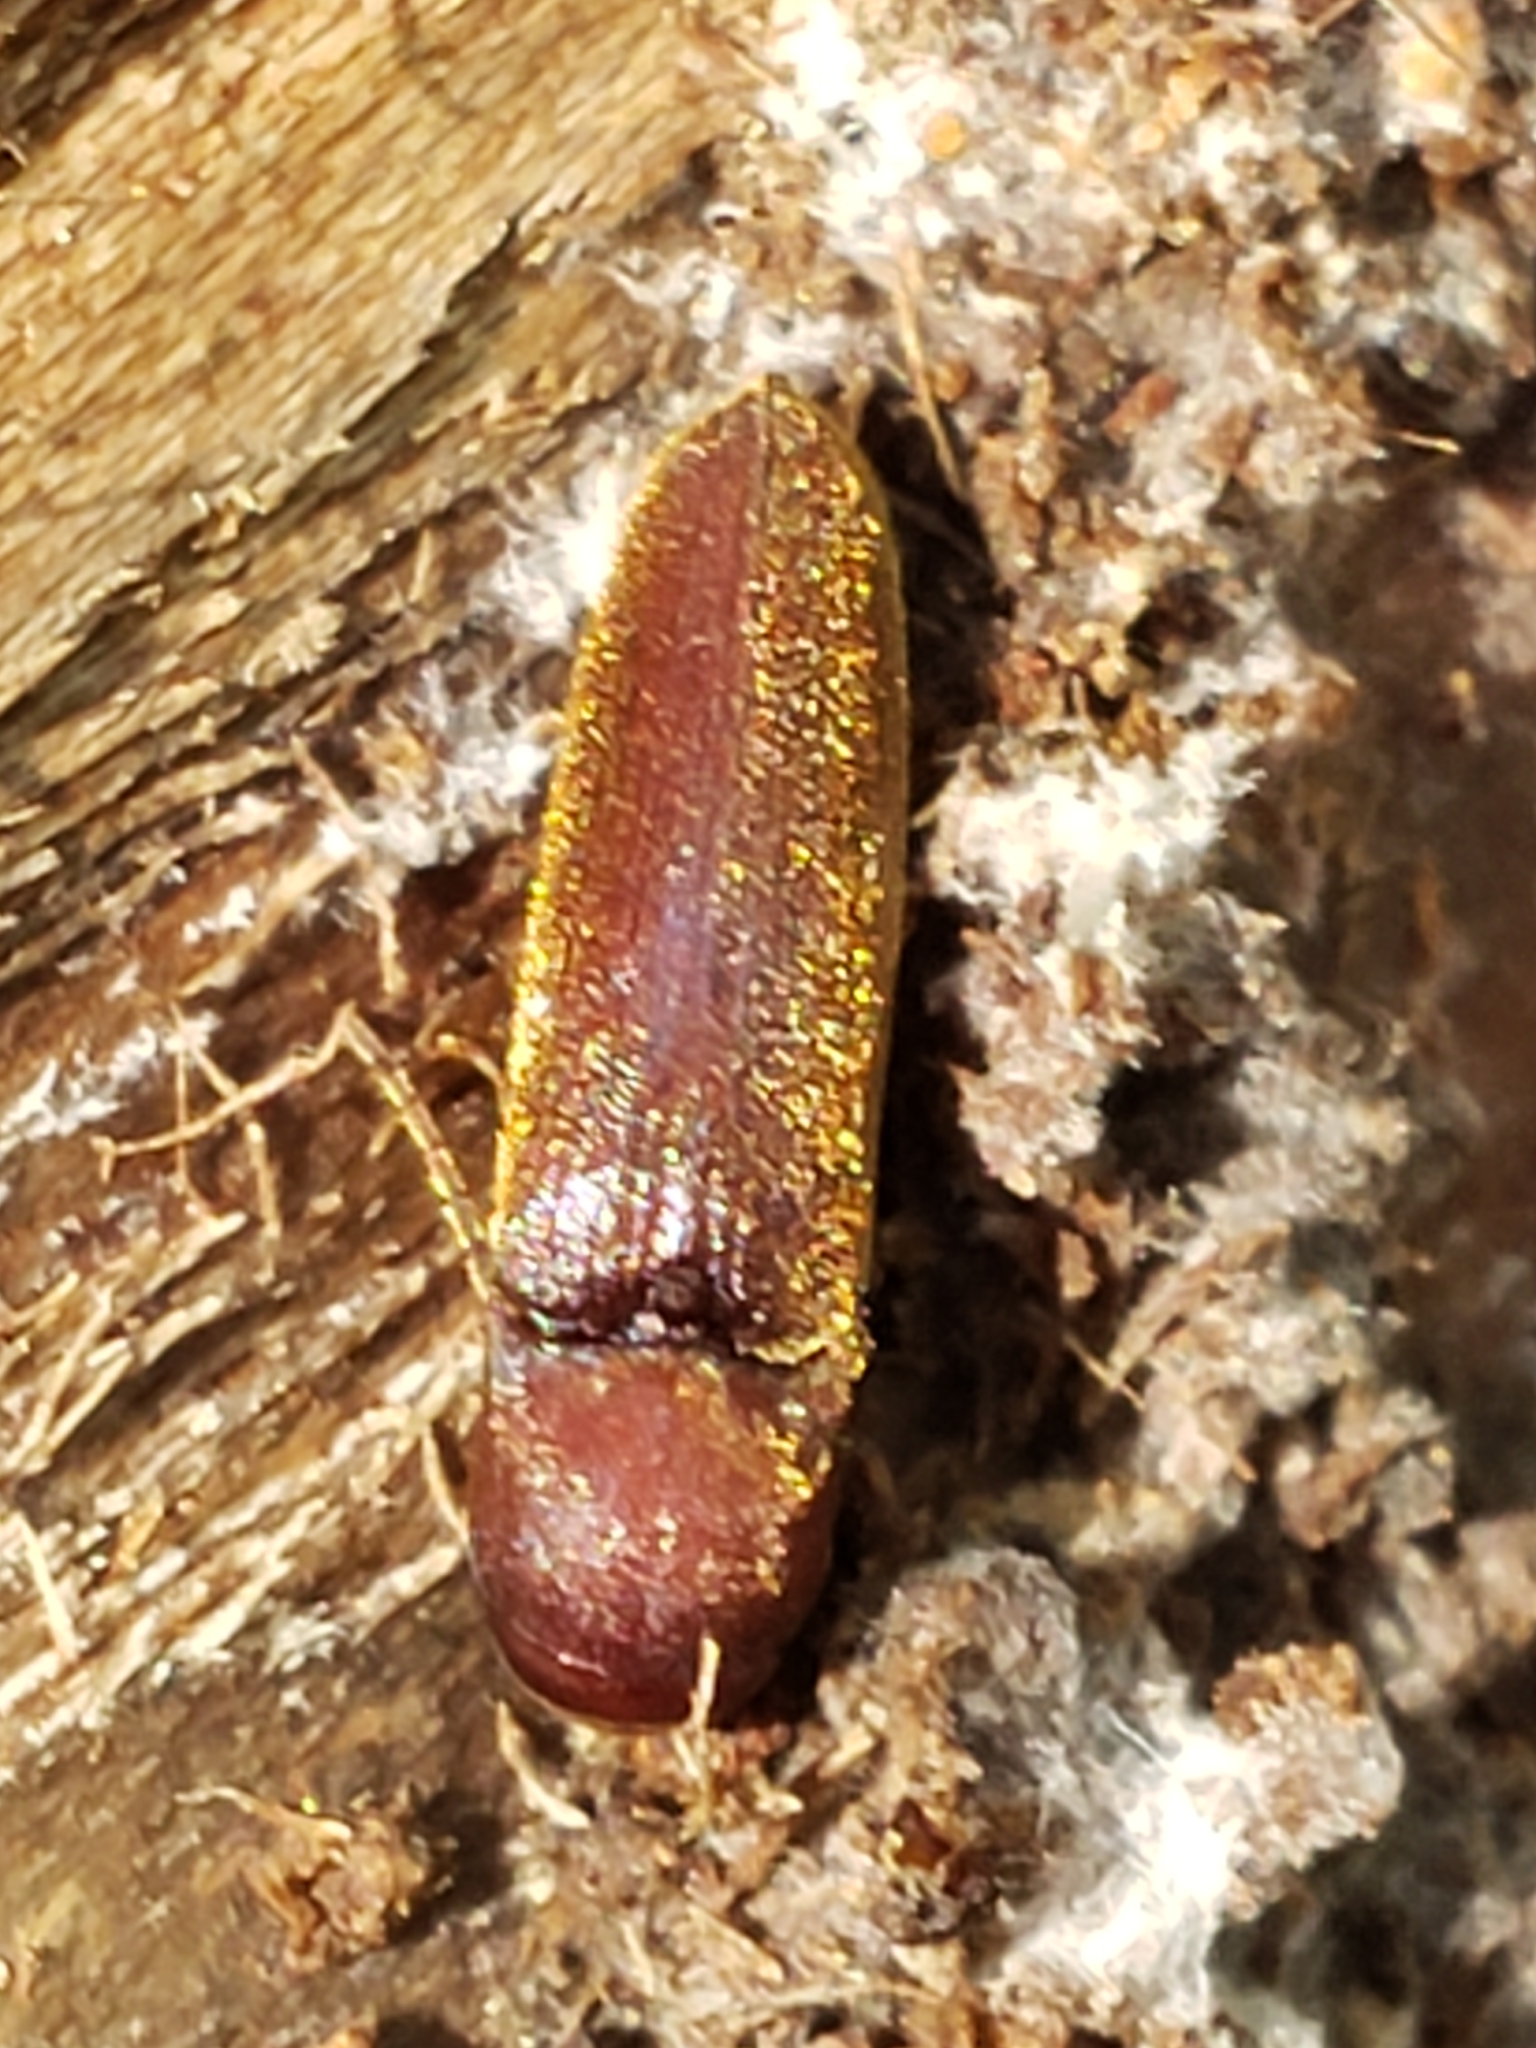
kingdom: Animalia
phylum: Arthropoda
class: Insecta
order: Coleoptera
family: Eucnemidae
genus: Dirrhagofarsus
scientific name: Dirrhagofarsus lewisi
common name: False click beetle
